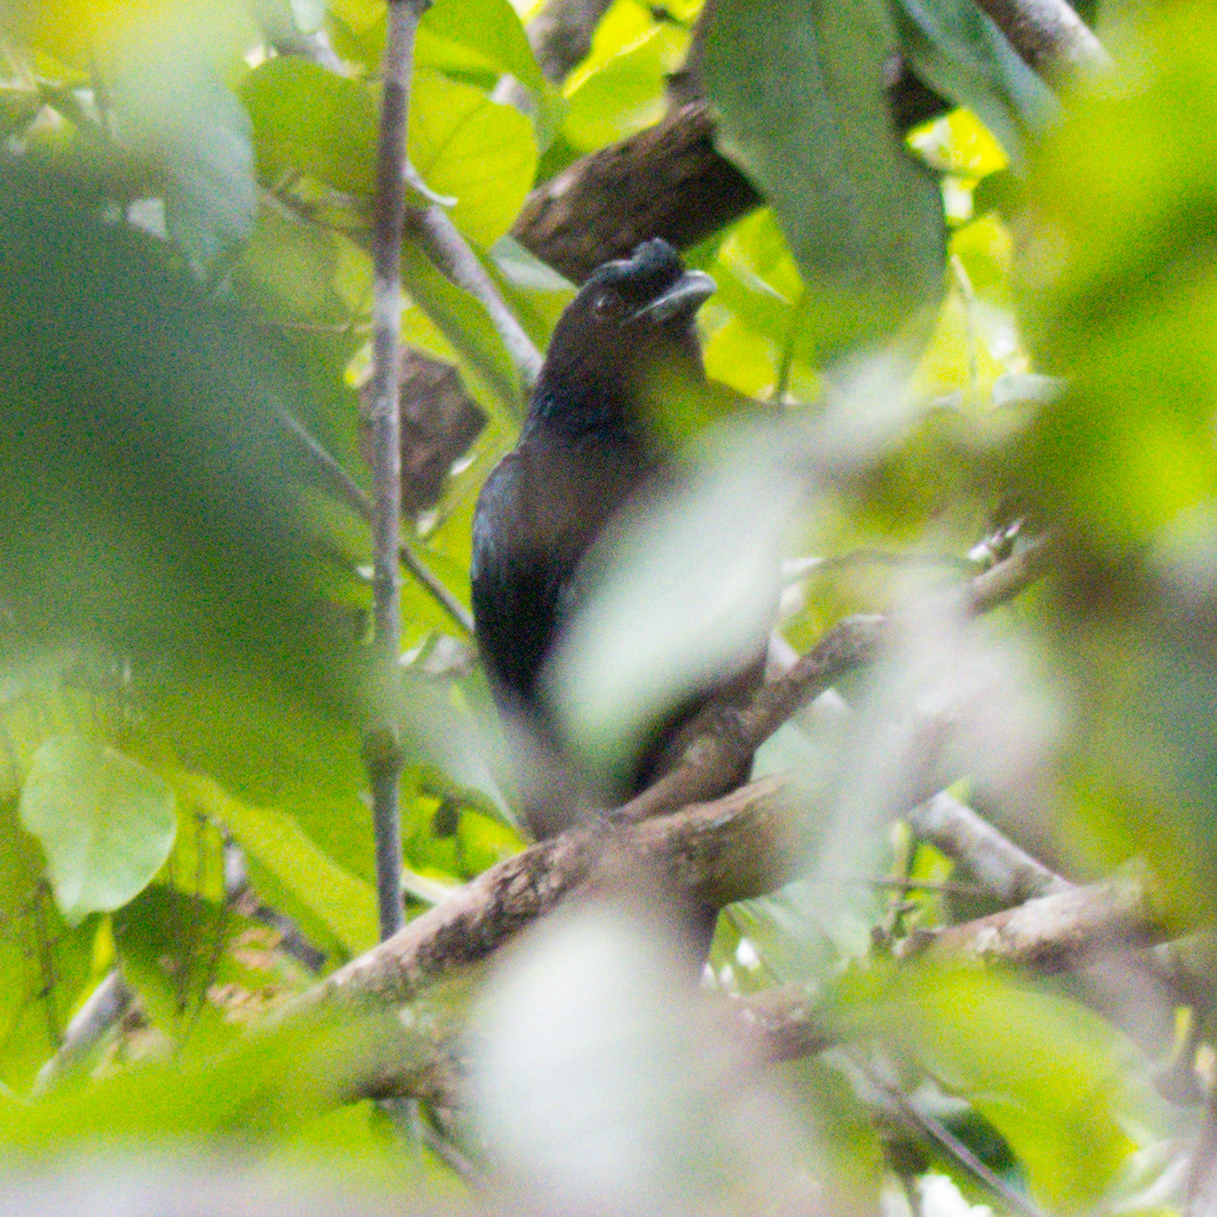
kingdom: Animalia
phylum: Chordata
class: Aves
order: Passeriformes
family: Dicruridae
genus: Dicrurus
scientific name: Dicrurus paradiseus
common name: Greater racket-tailed drongo
